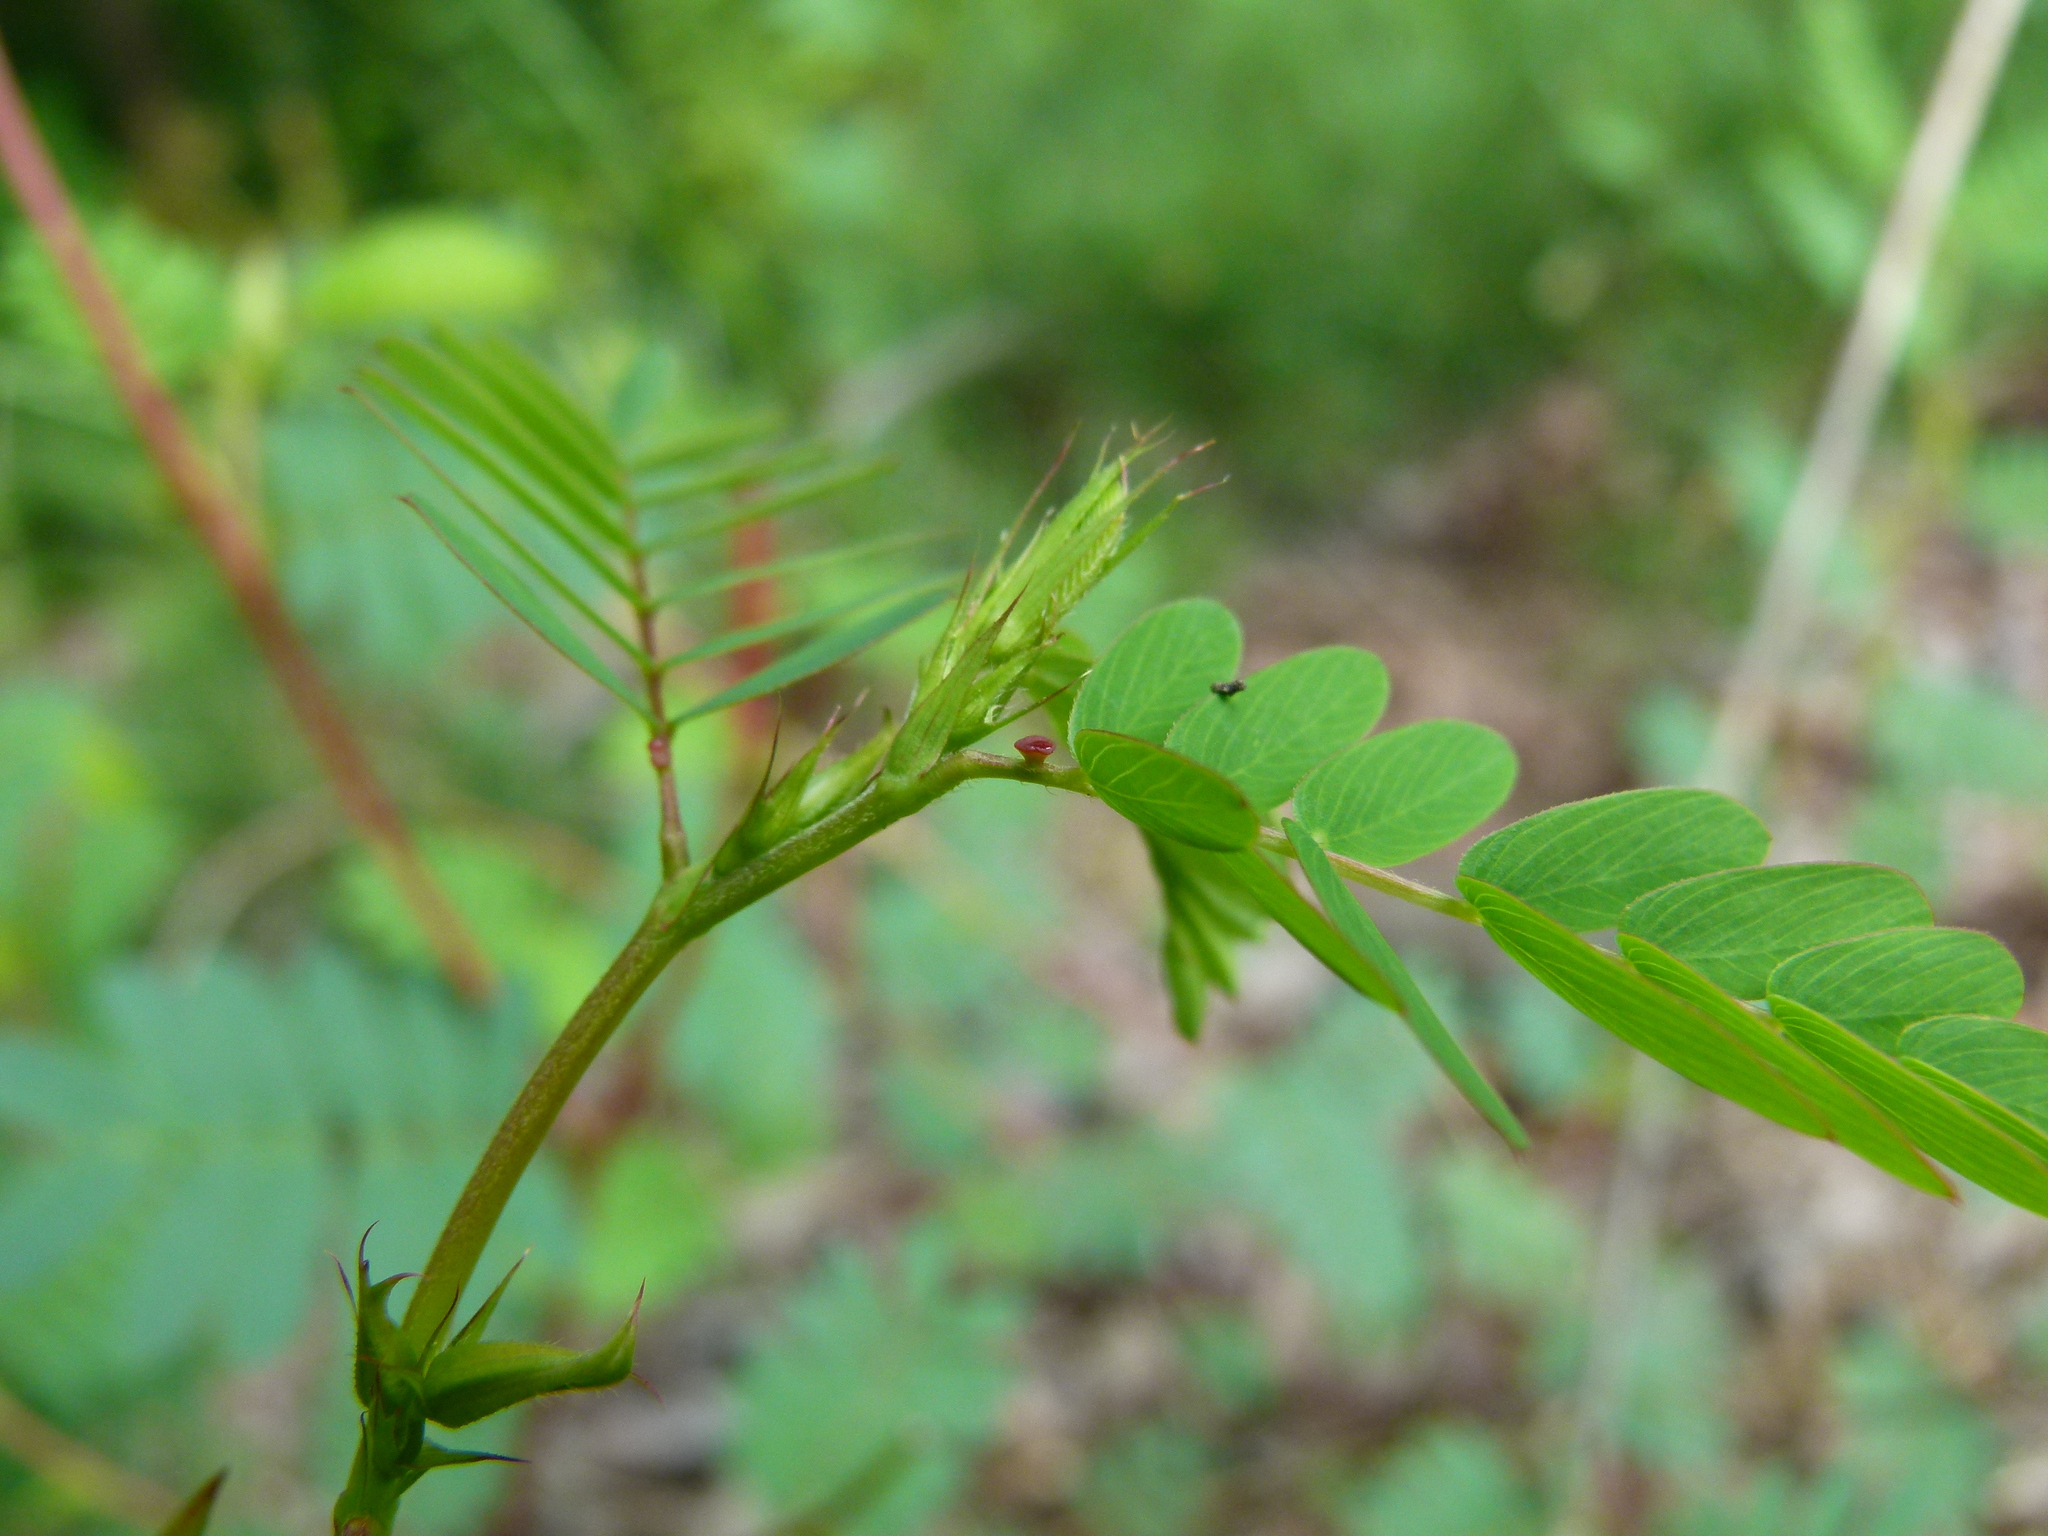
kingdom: Plantae
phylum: Tracheophyta
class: Magnoliopsida
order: Fabales
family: Fabaceae
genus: Chamaecrista
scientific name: Chamaecrista fasciculata
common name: Golden cassia
